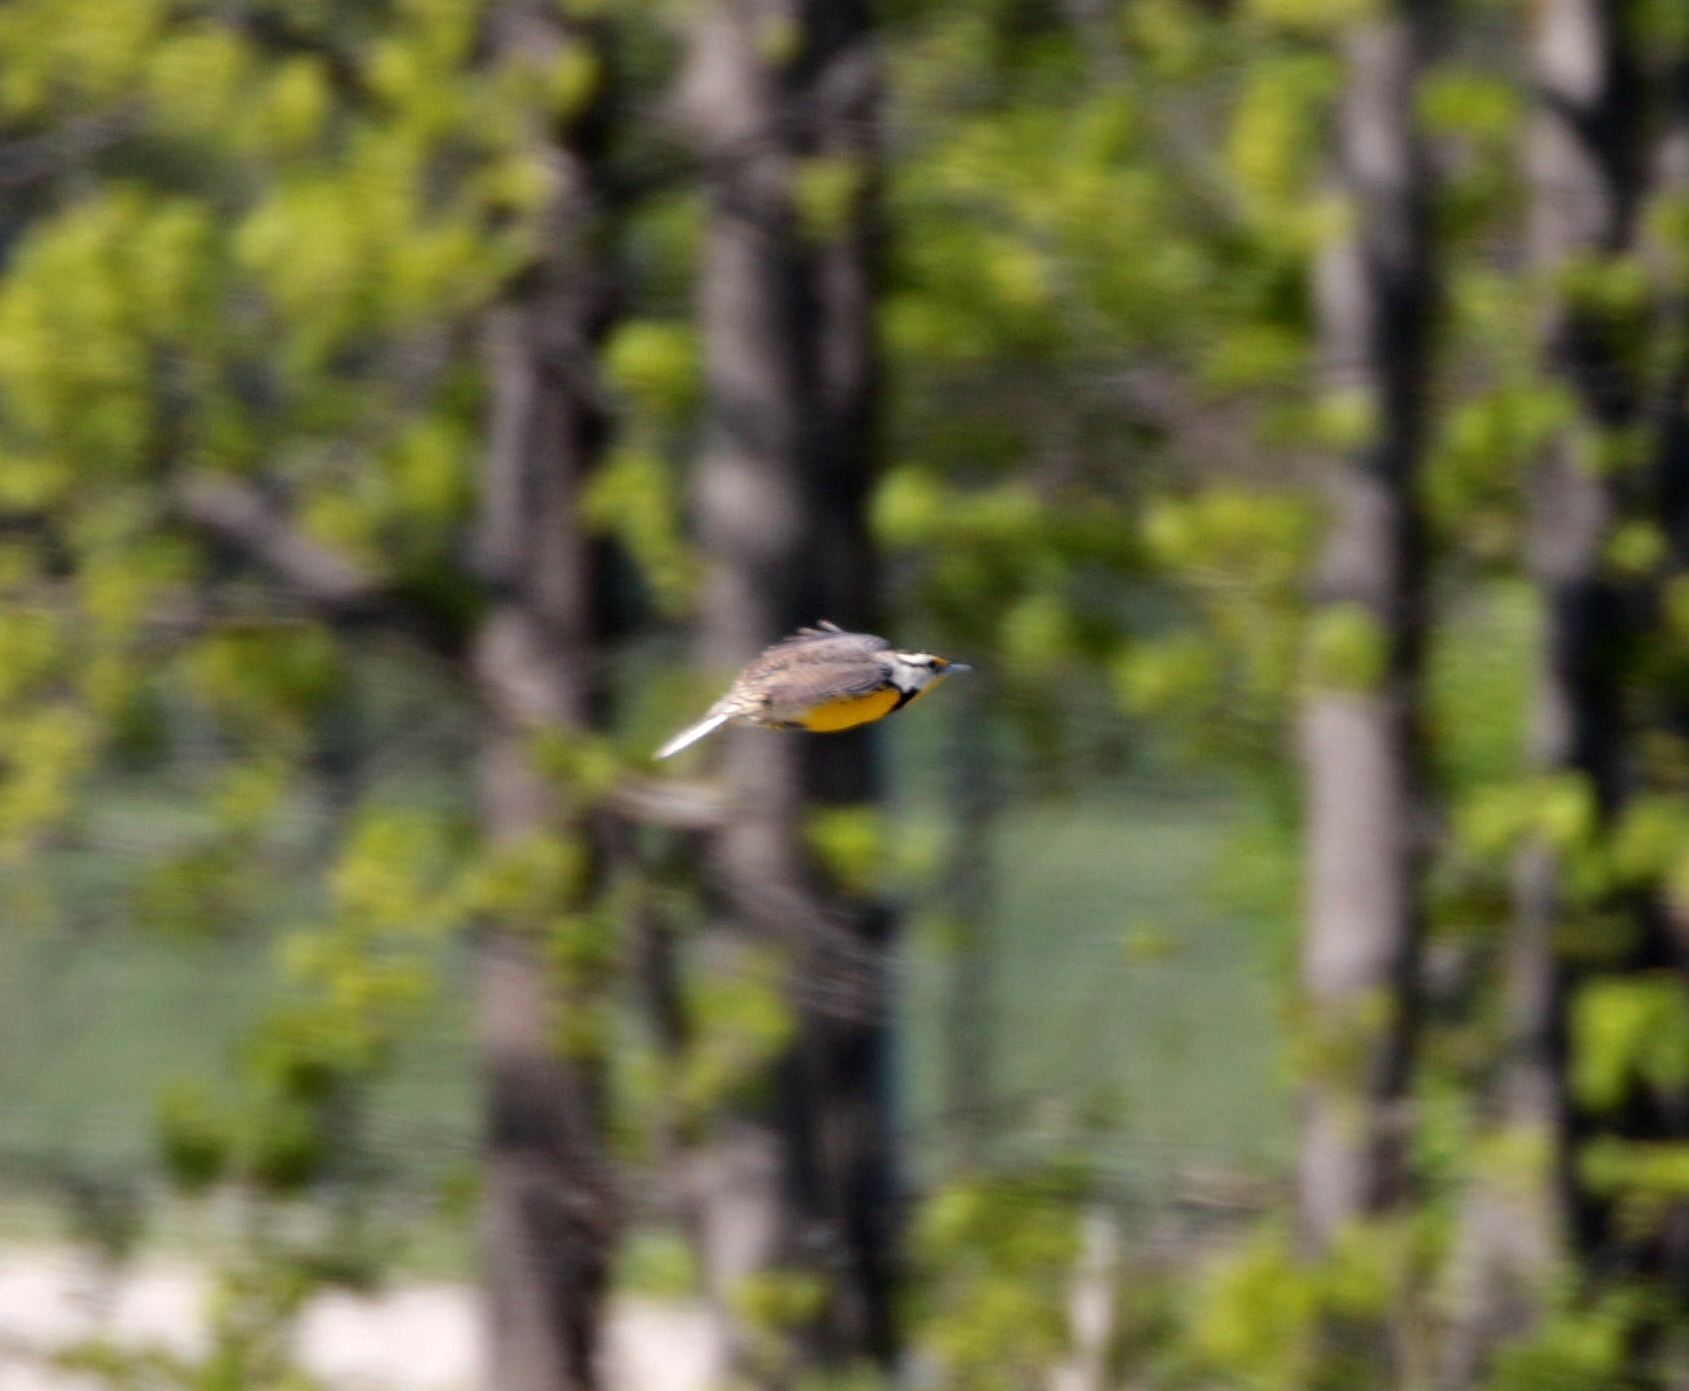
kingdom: Animalia
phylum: Chordata
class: Aves
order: Passeriformes
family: Icteridae
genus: Sturnella
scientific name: Sturnella magna
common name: Eastern meadowlark
